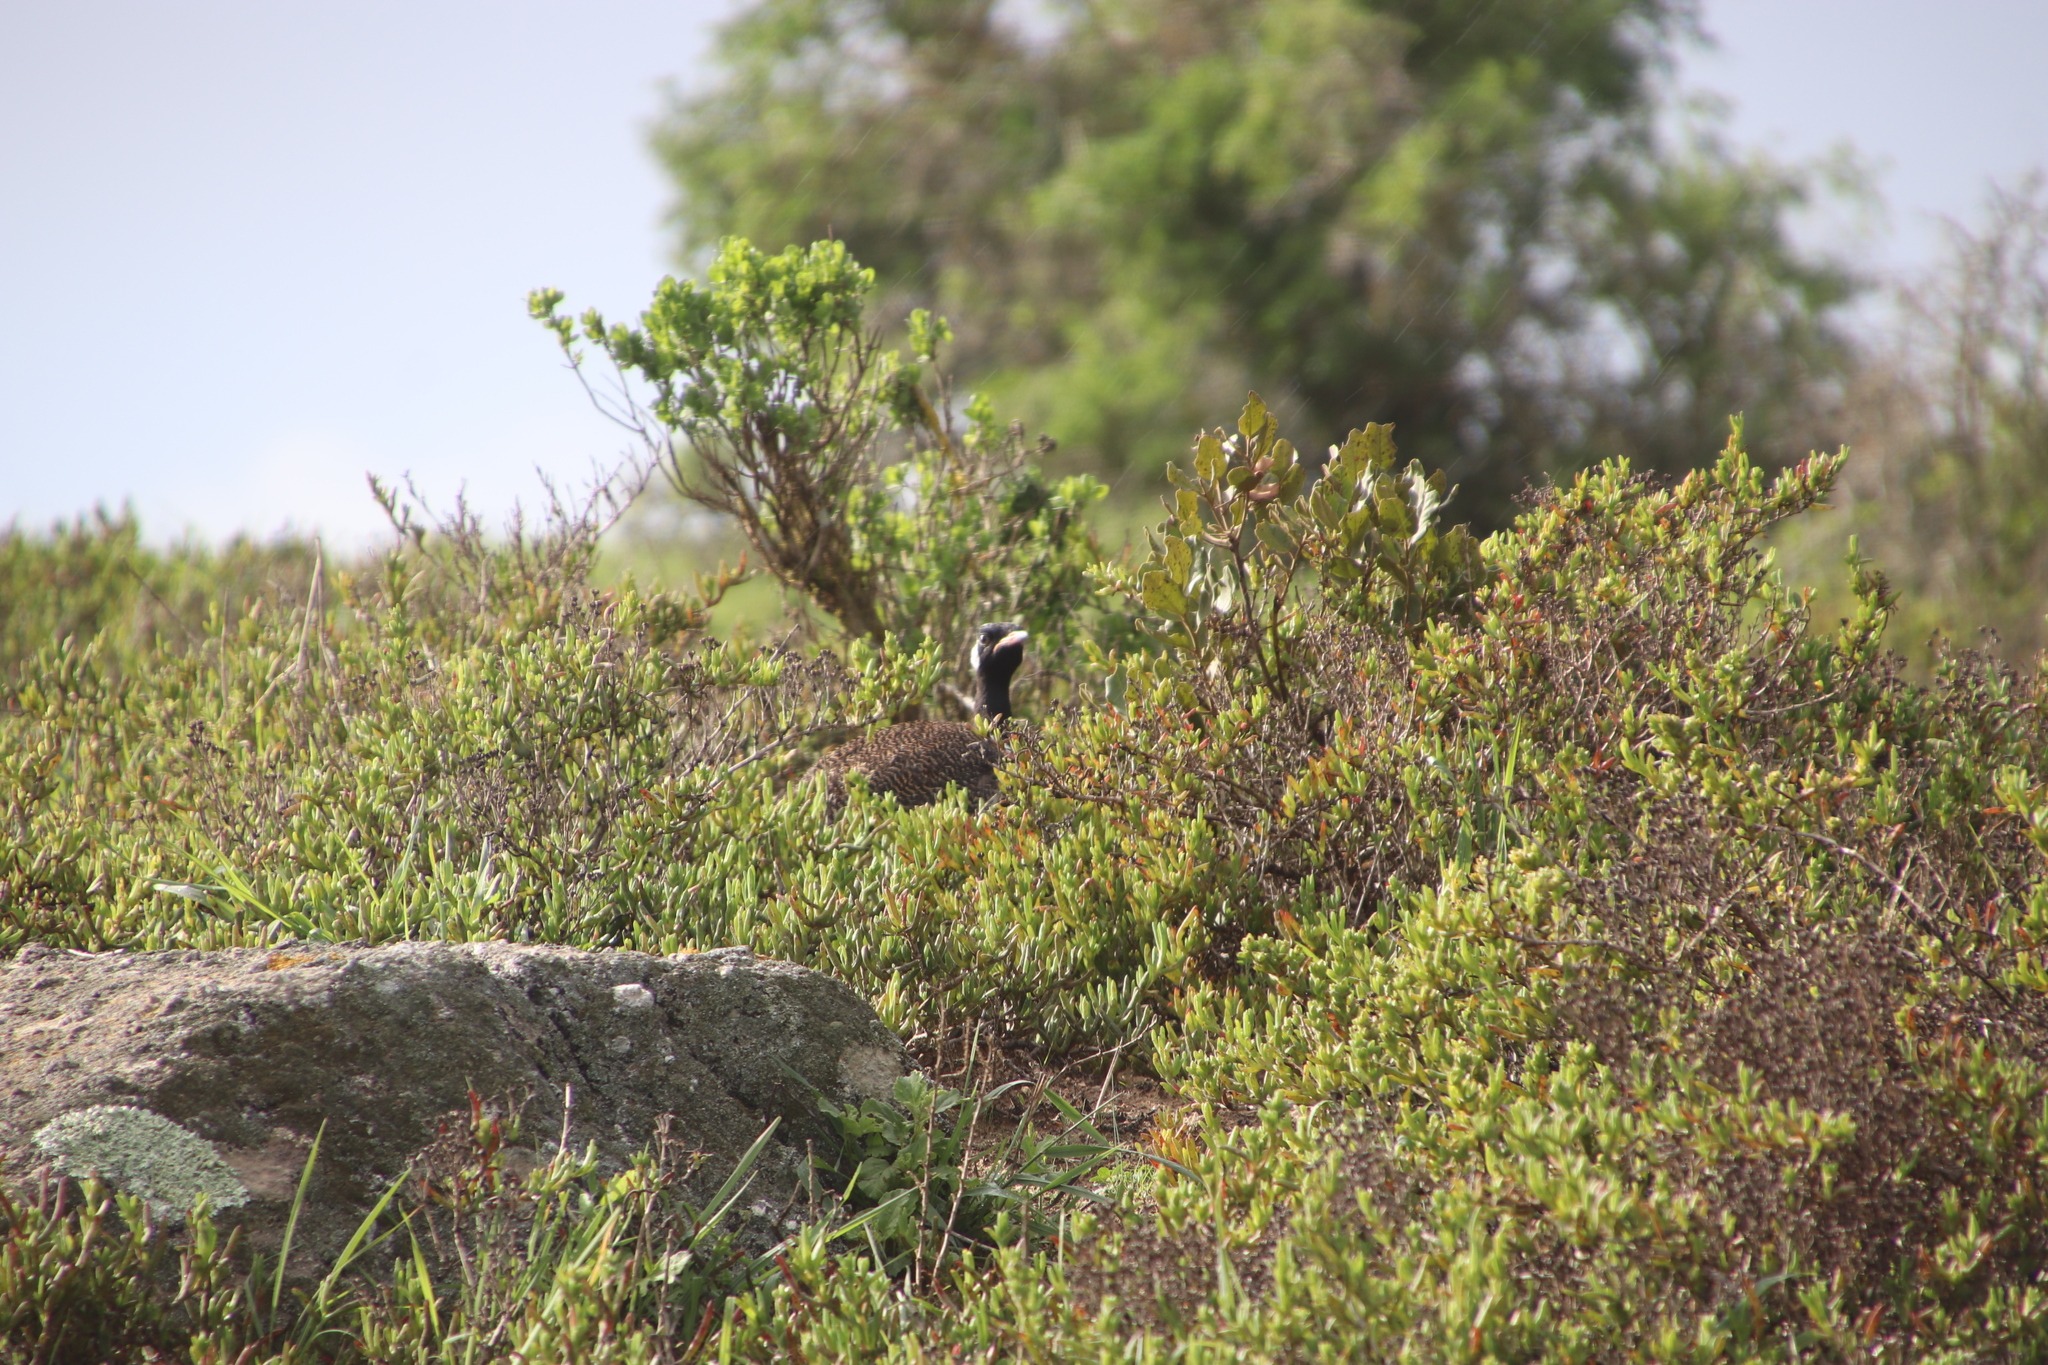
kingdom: Animalia
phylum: Chordata
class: Aves
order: Otidiformes
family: Otididae
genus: Afrotis
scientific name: Afrotis afra
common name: Southern black korhaan
